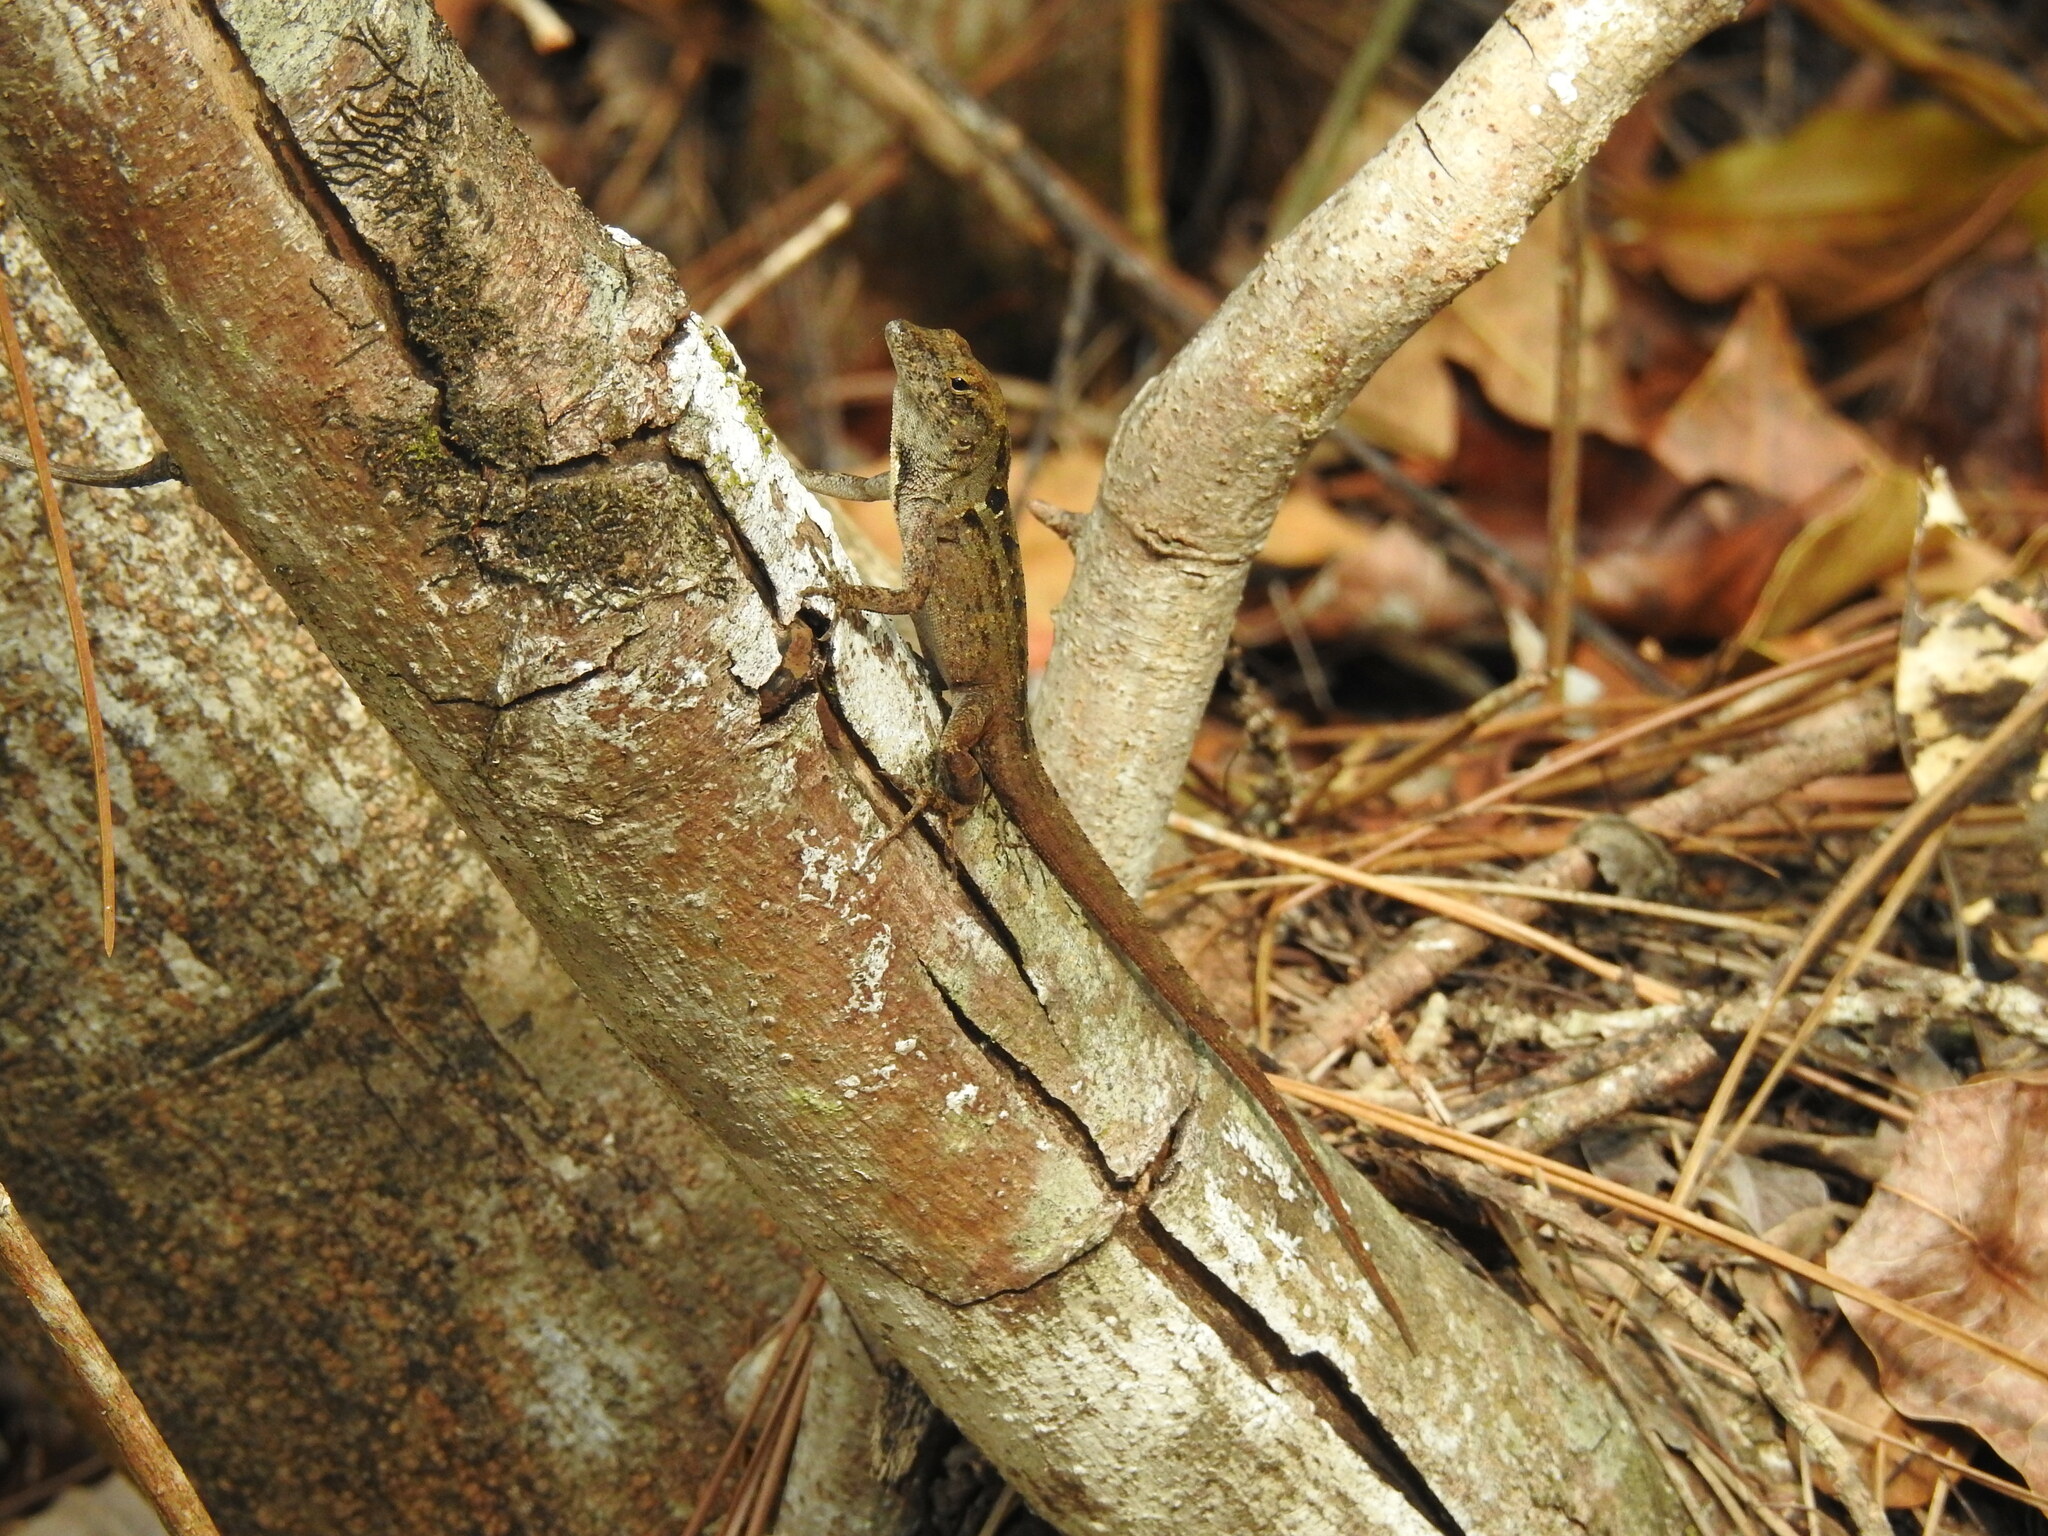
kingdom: Animalia
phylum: Chordata
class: Squamata
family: Dactyloidae
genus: Anolis
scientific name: Anolis sagrei
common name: Brown anole
